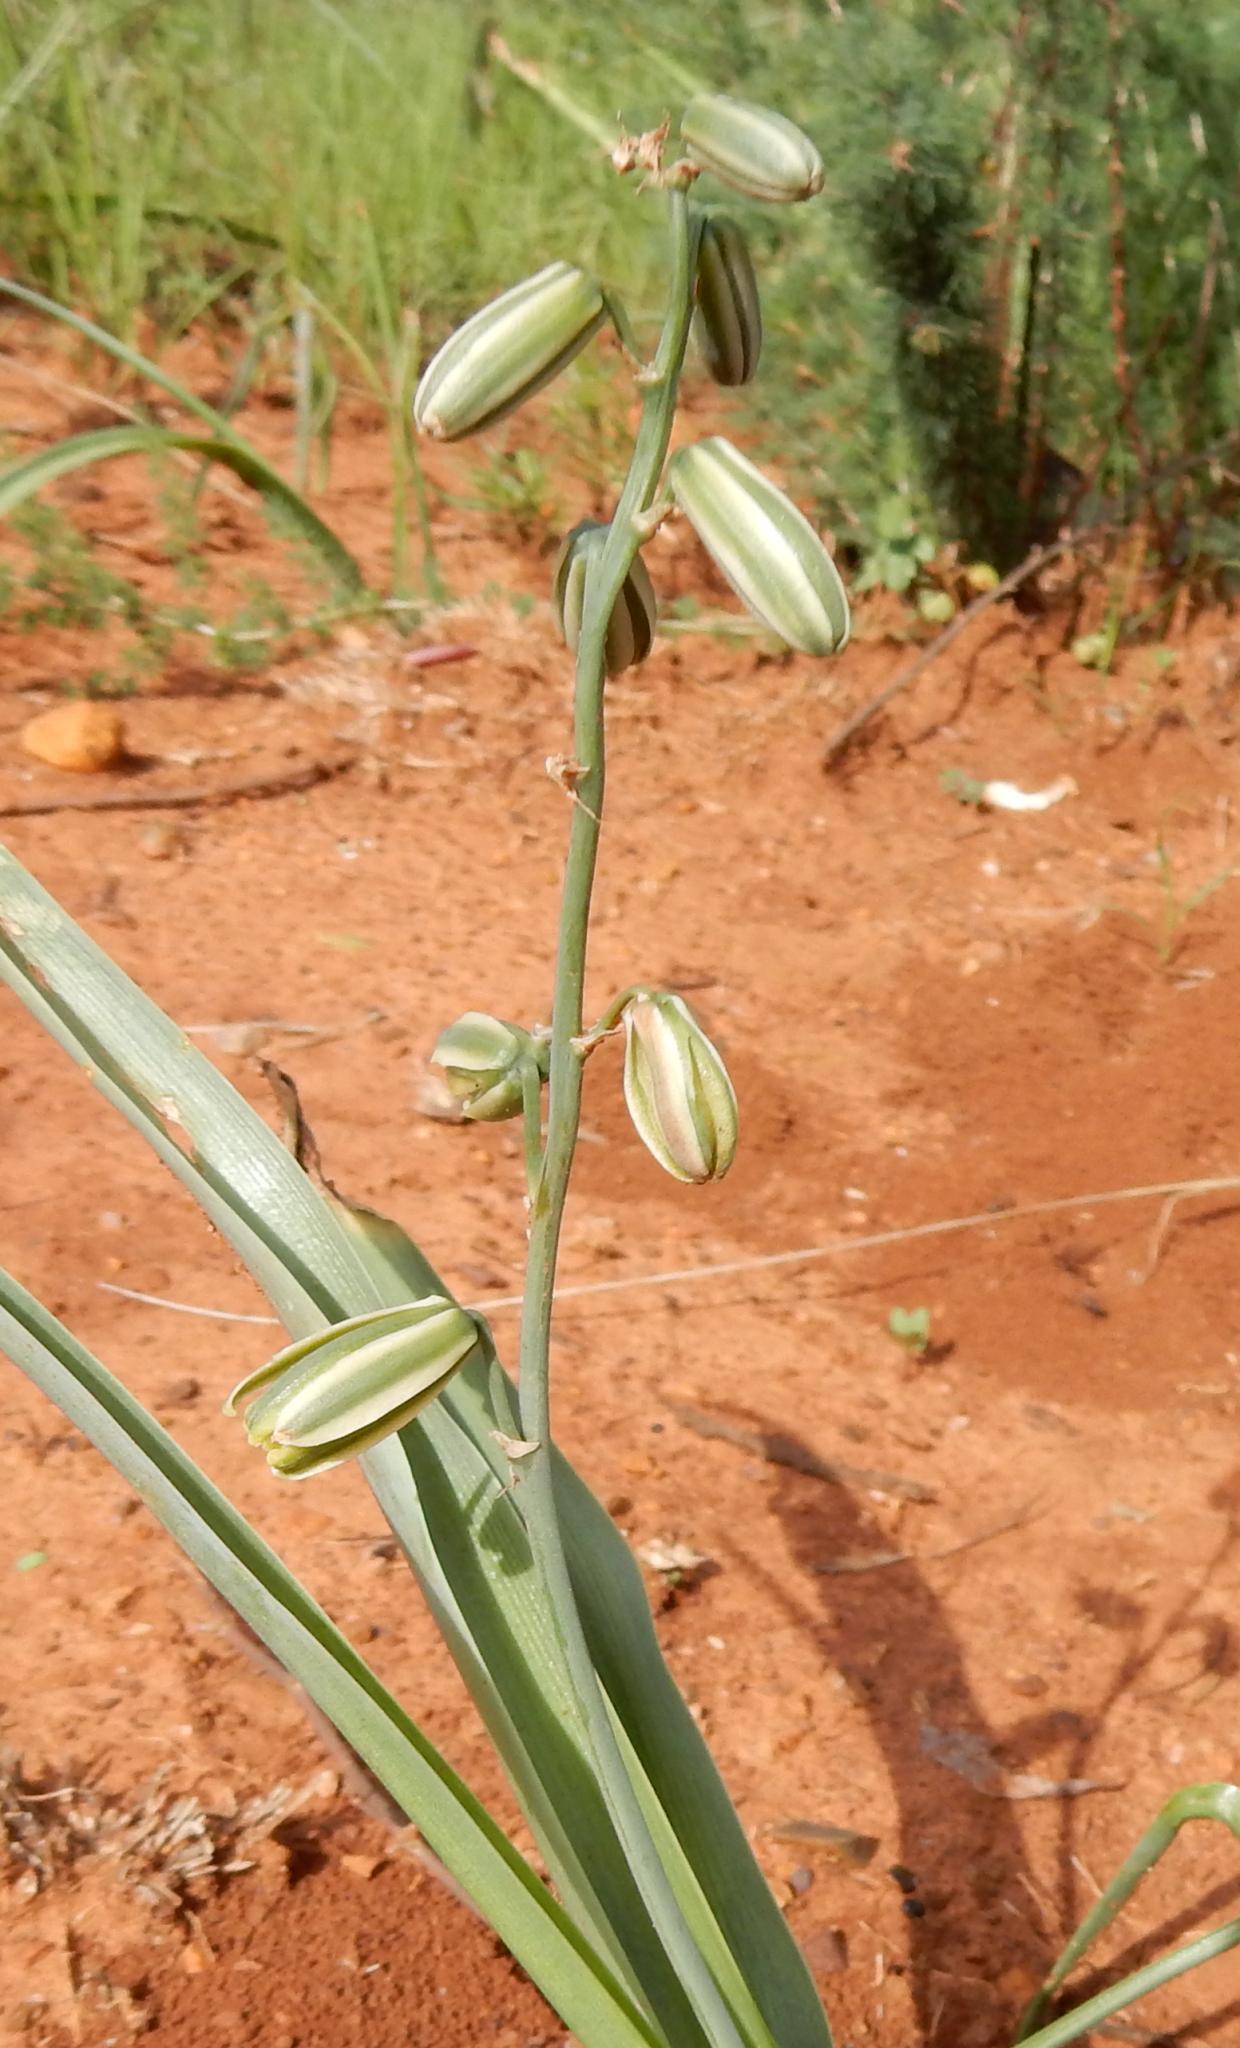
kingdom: Plantae
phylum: Tracheophyta
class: Liliopsida
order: Asparagales
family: Asparagaceae
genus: Albuca
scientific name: Albuca glauca
